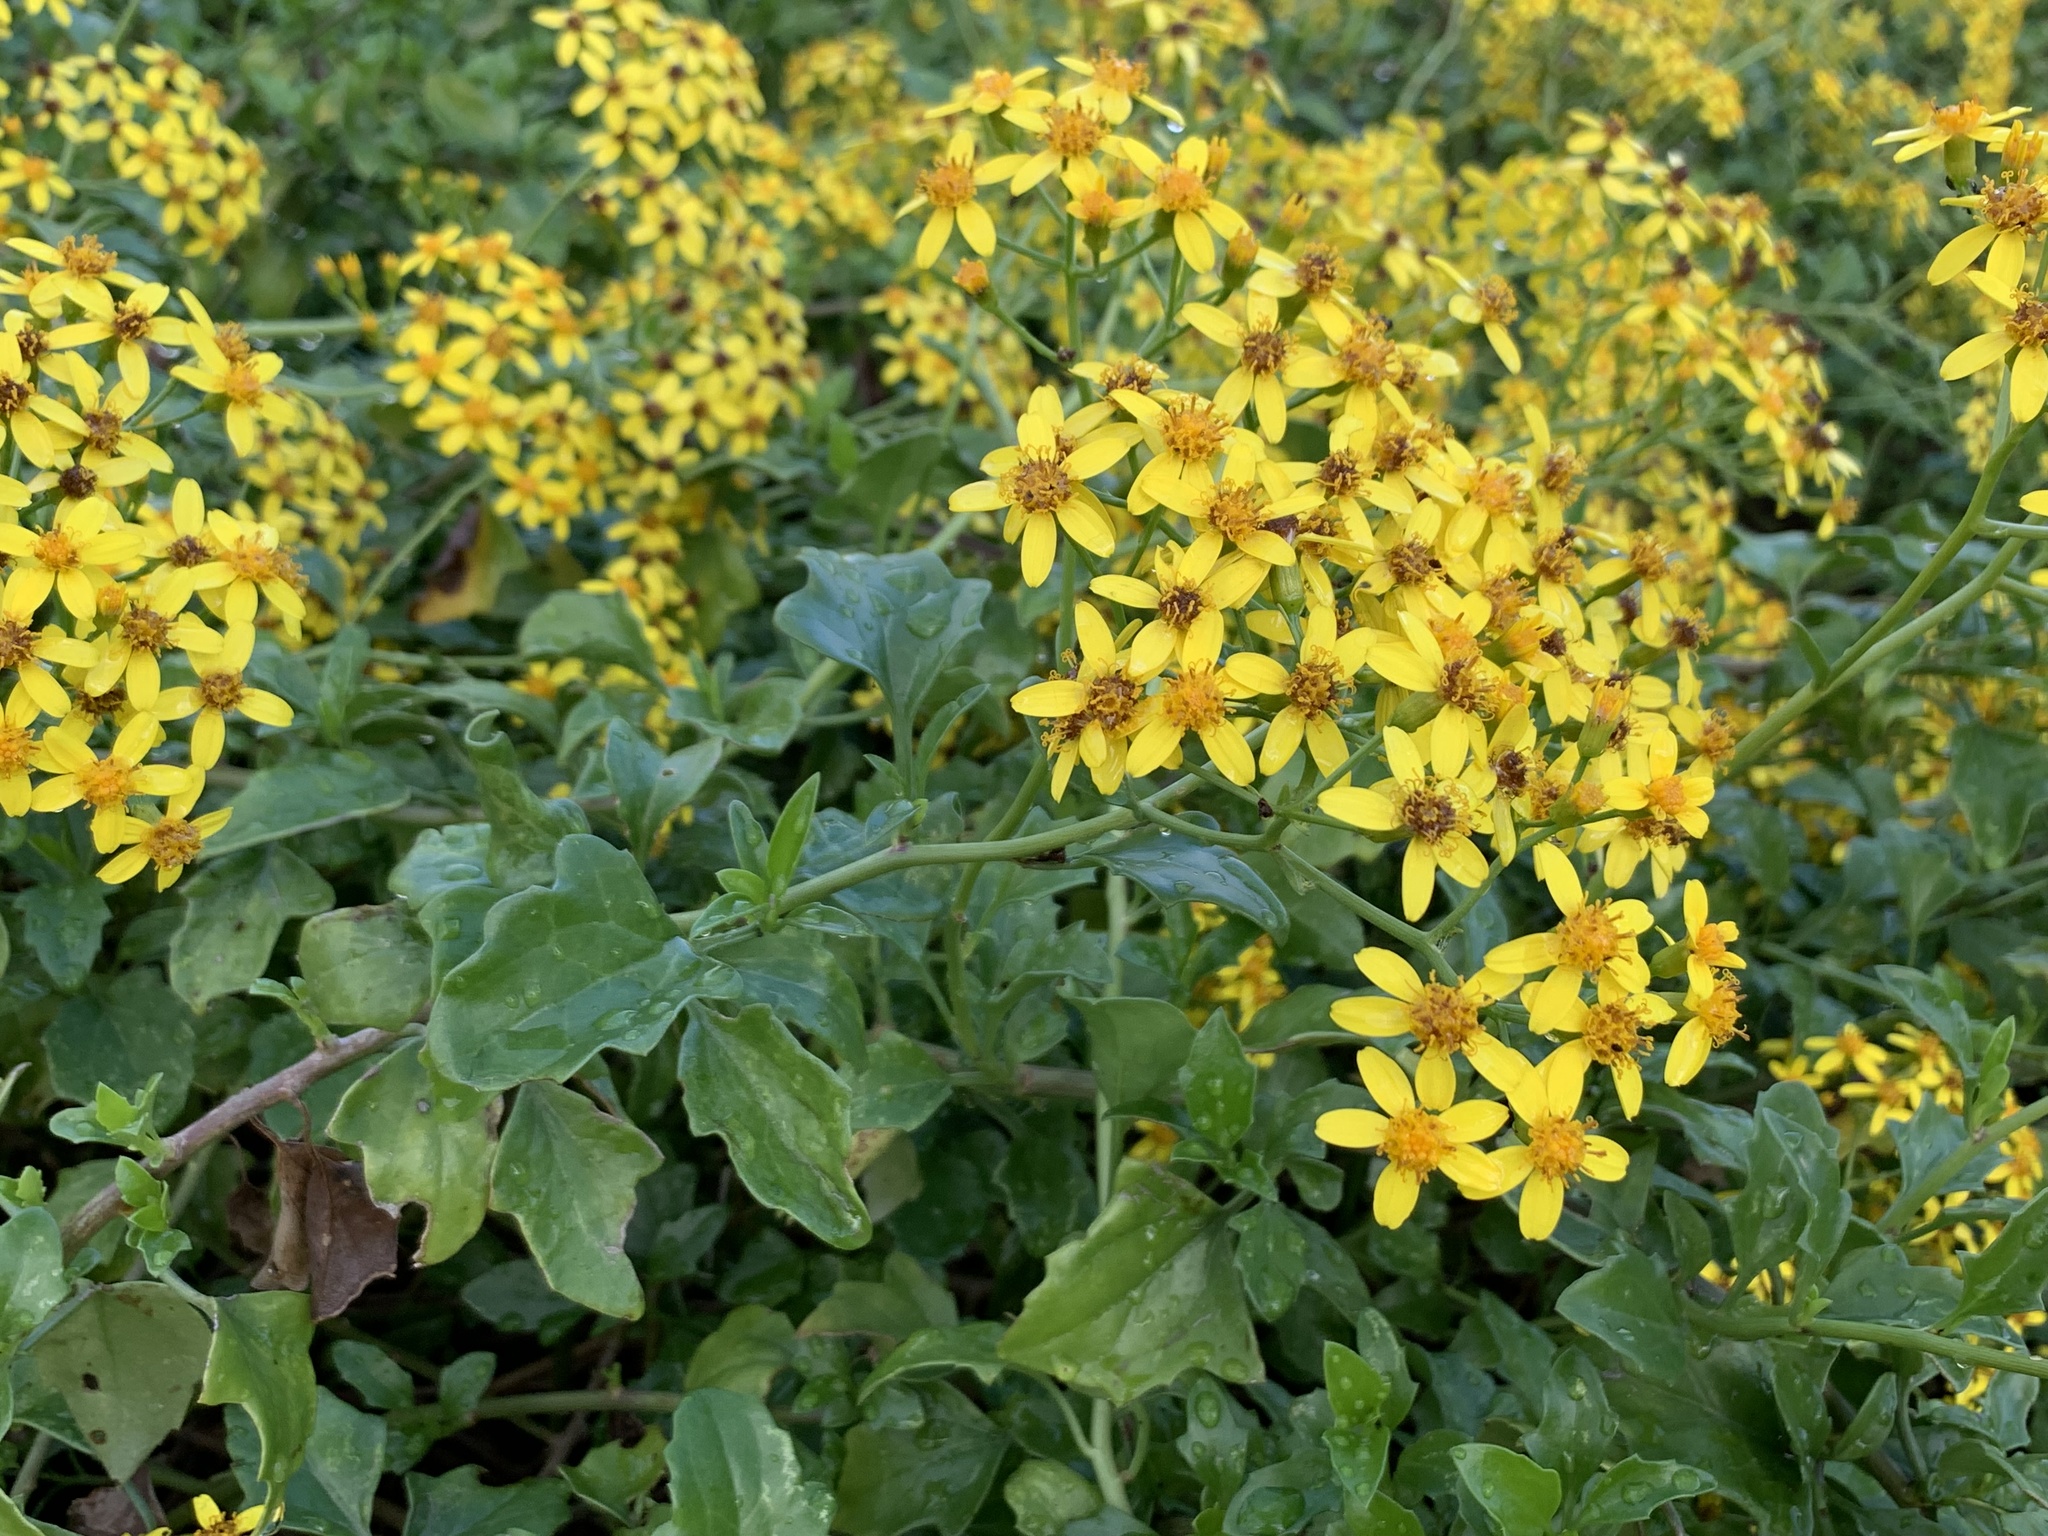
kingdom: Plantae
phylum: Tracheophyta
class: Magnoliopsida
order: Asterales
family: Asteraceae
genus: Senecio
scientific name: Senecio angulatus
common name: Climbing groundsel
